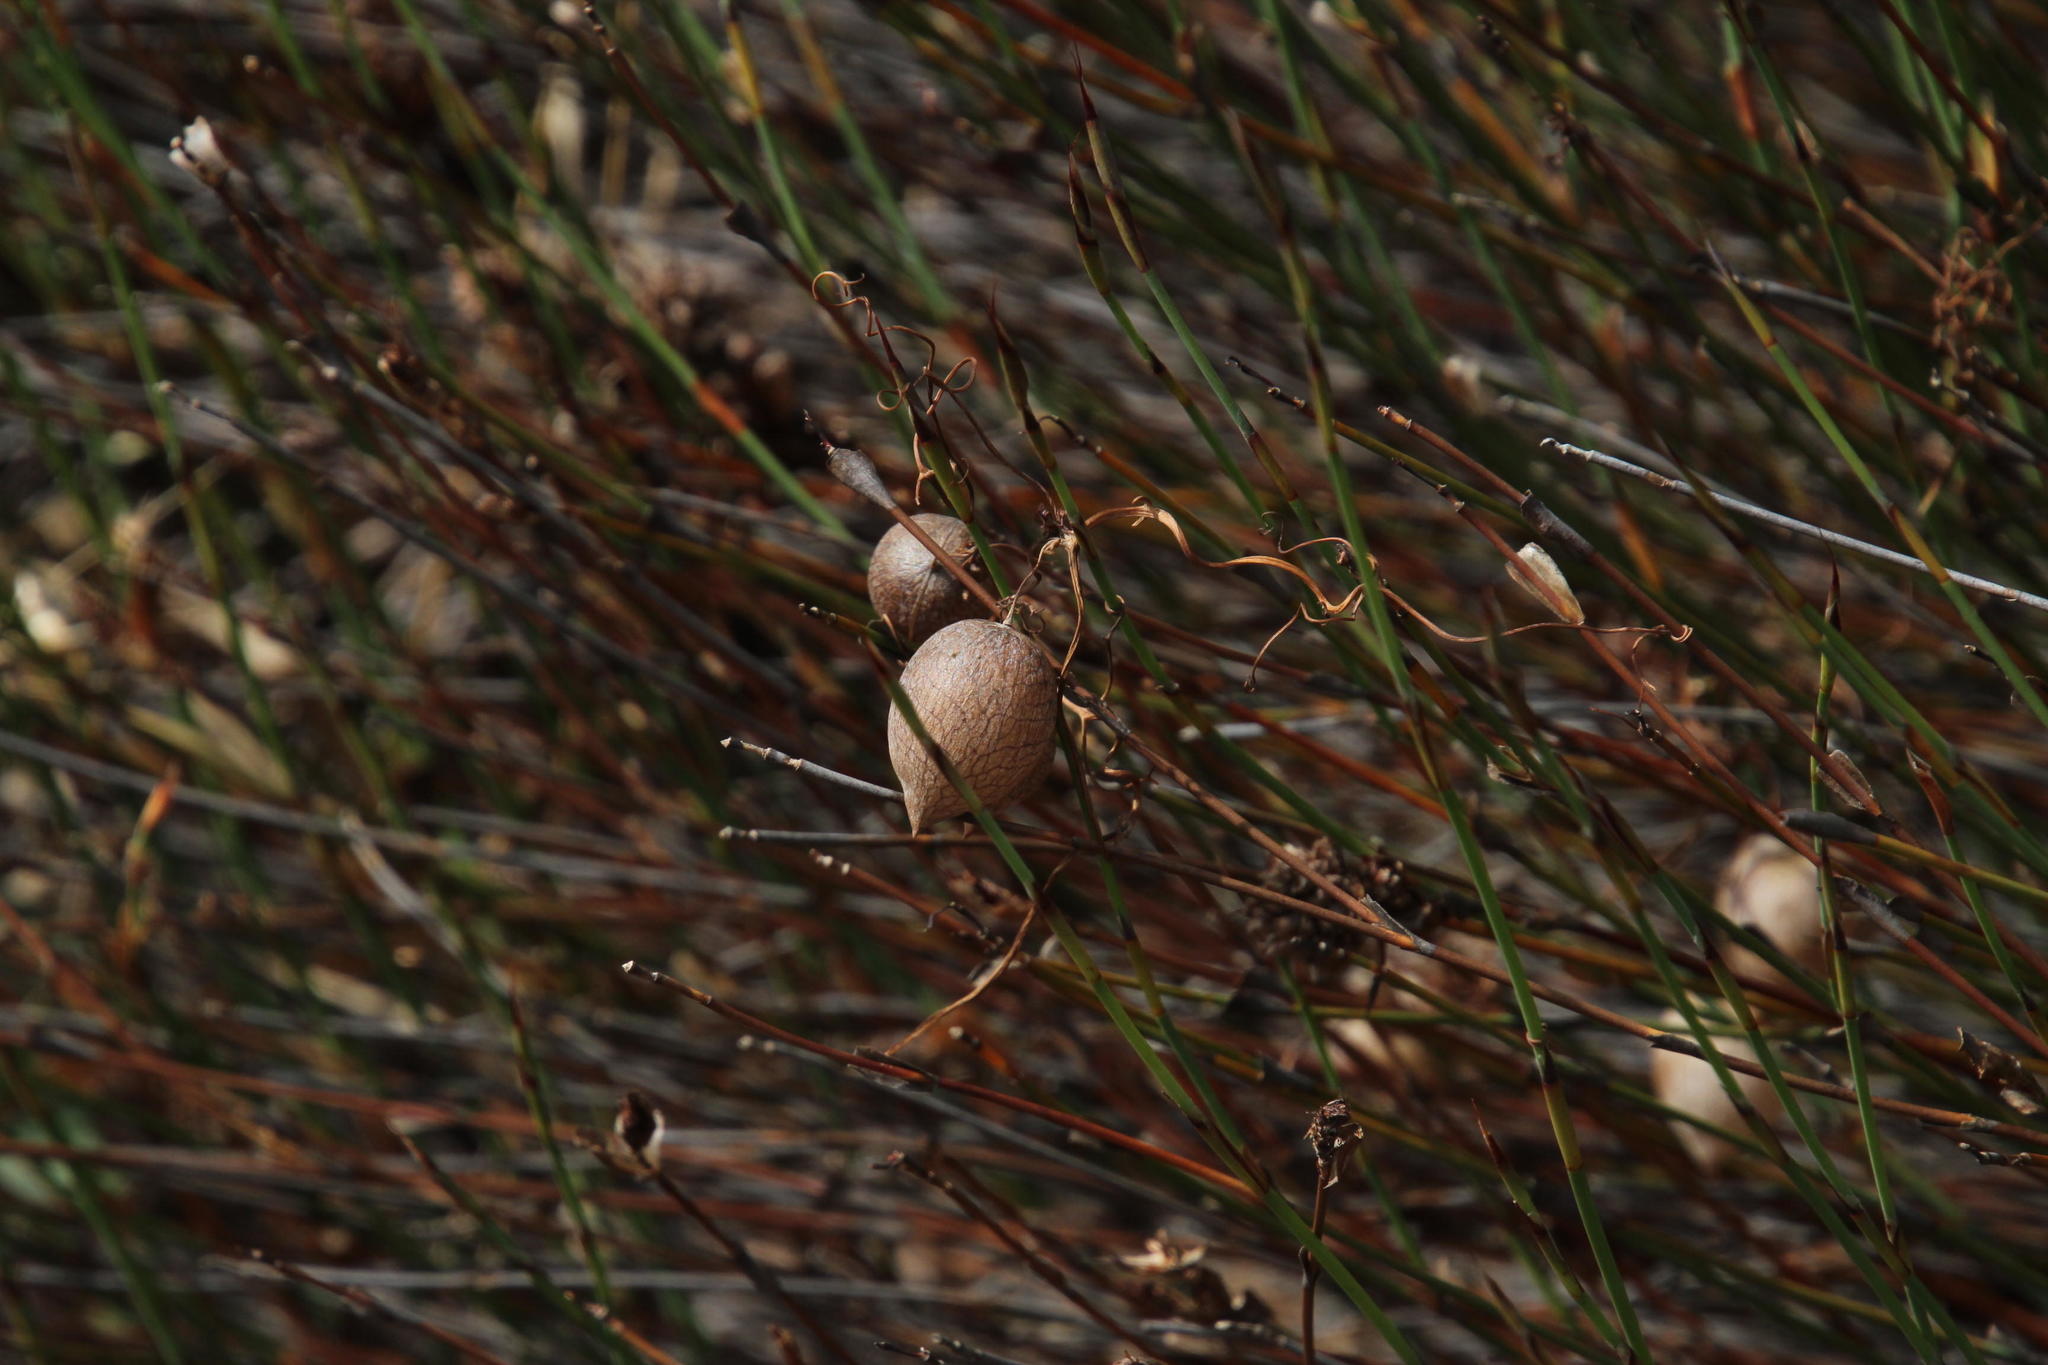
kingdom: Plantae
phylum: Tracheophyta
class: Magnoliopsida
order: Ranunculales
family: Papaveraceae
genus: Cysticapnos
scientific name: Cysticapnos vesicaria
